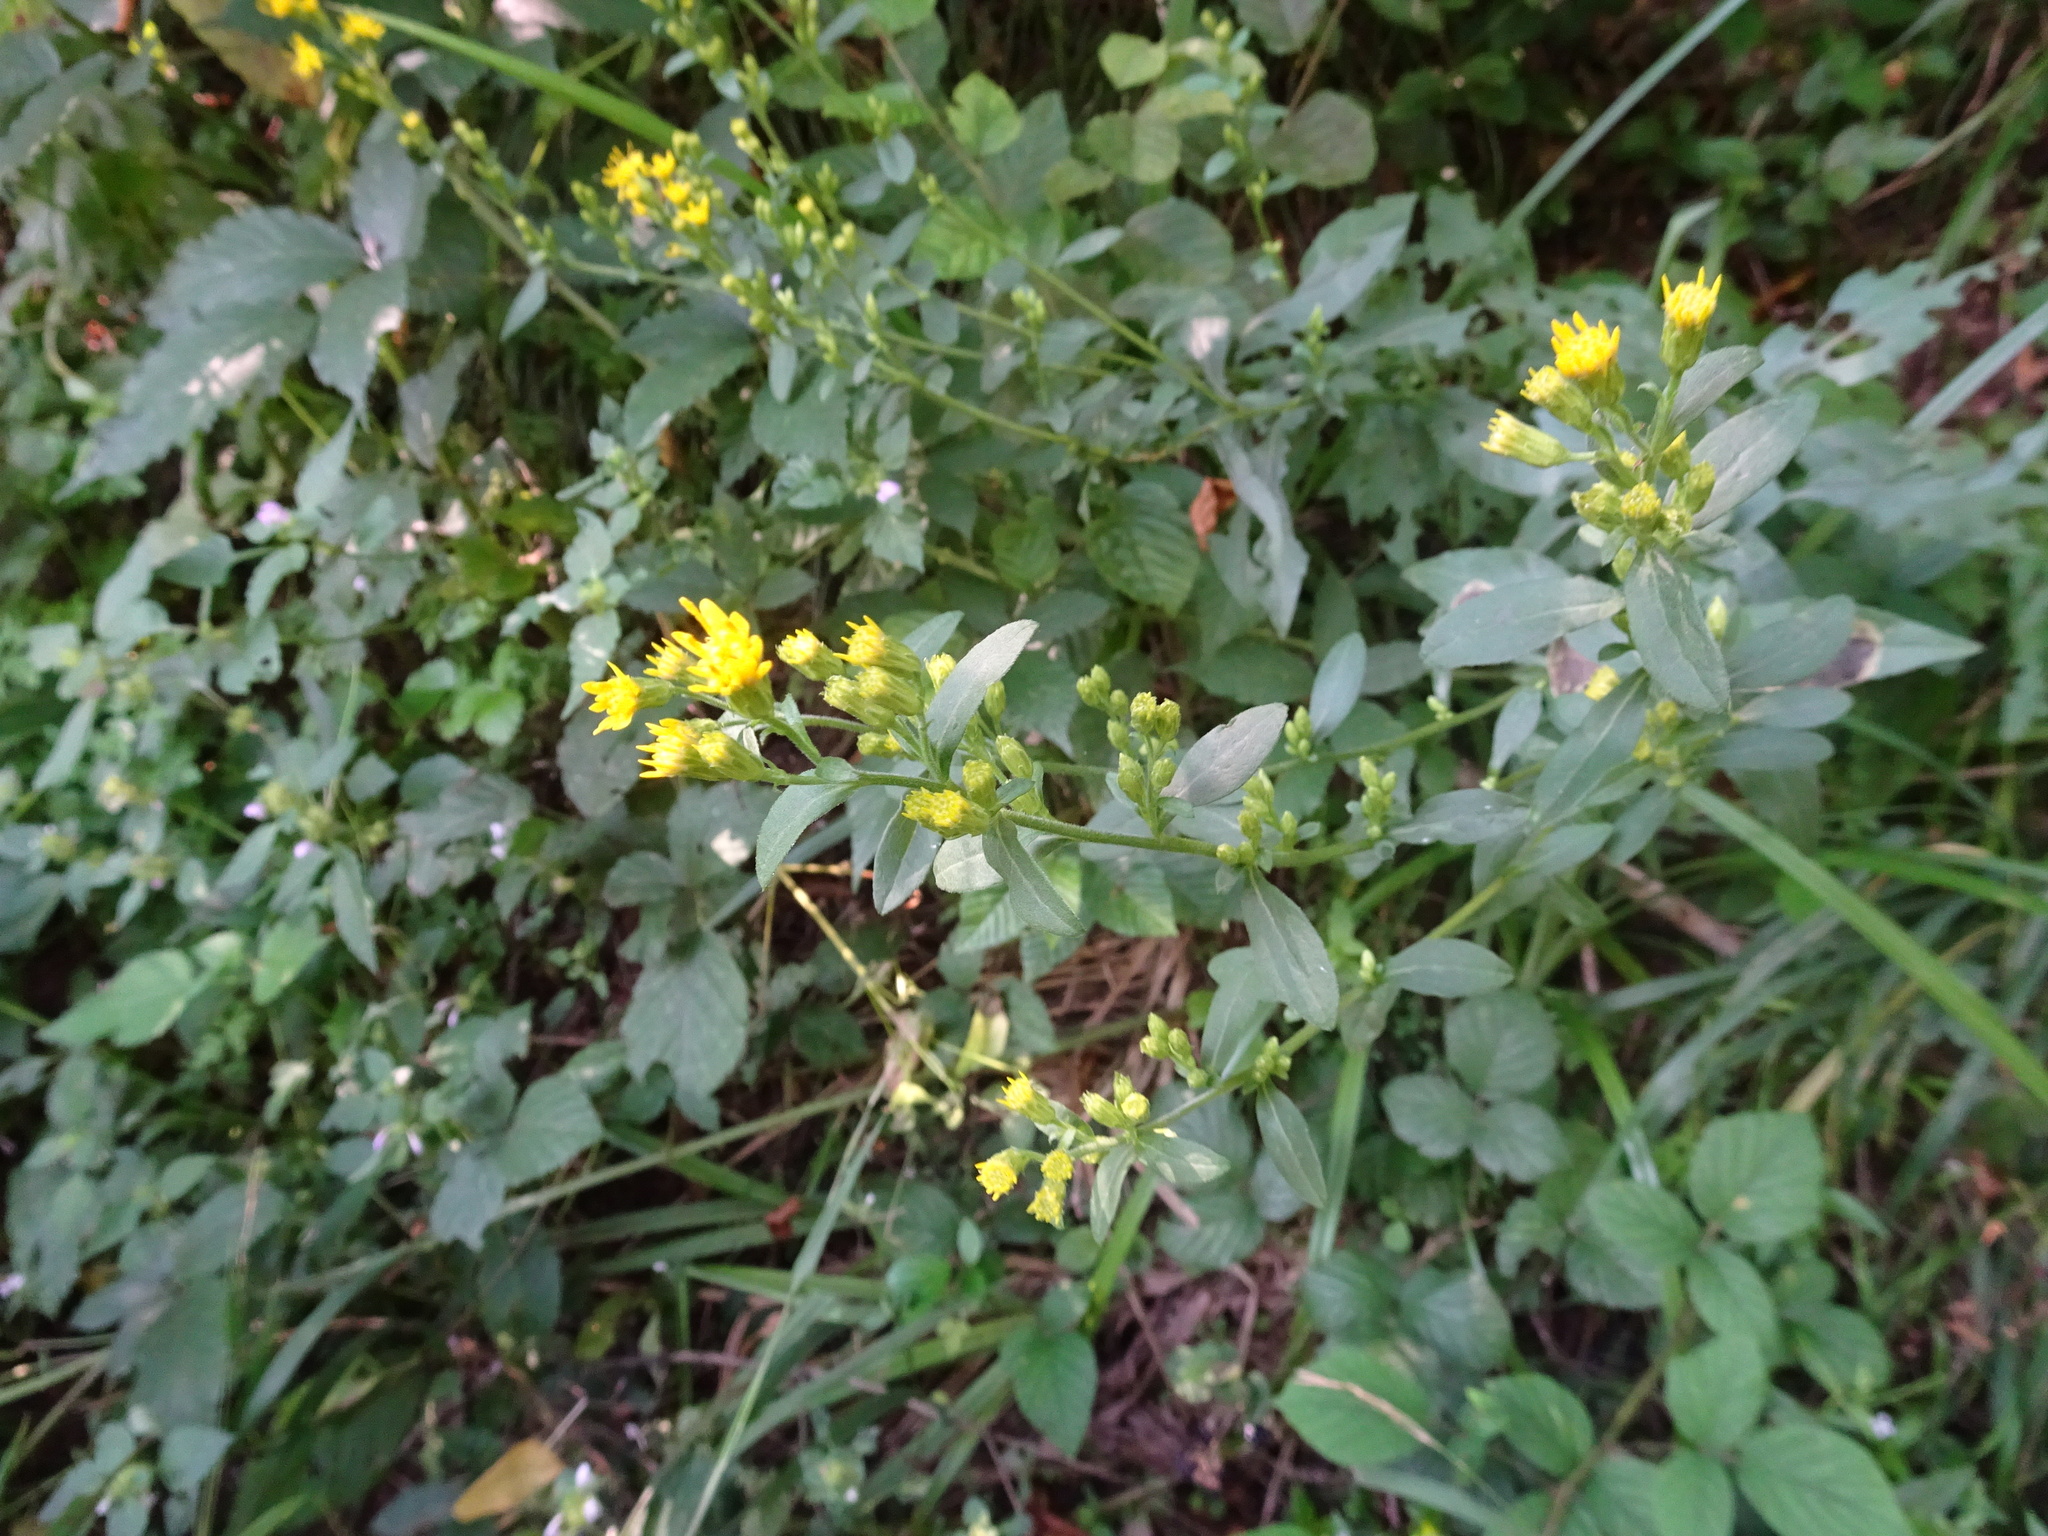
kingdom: Plantae
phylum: Tracheophyta
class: Magnoliopsida
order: Asterales
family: Asteraceae
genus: Solidago
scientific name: Solidago virgaurea
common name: Goldenrod
